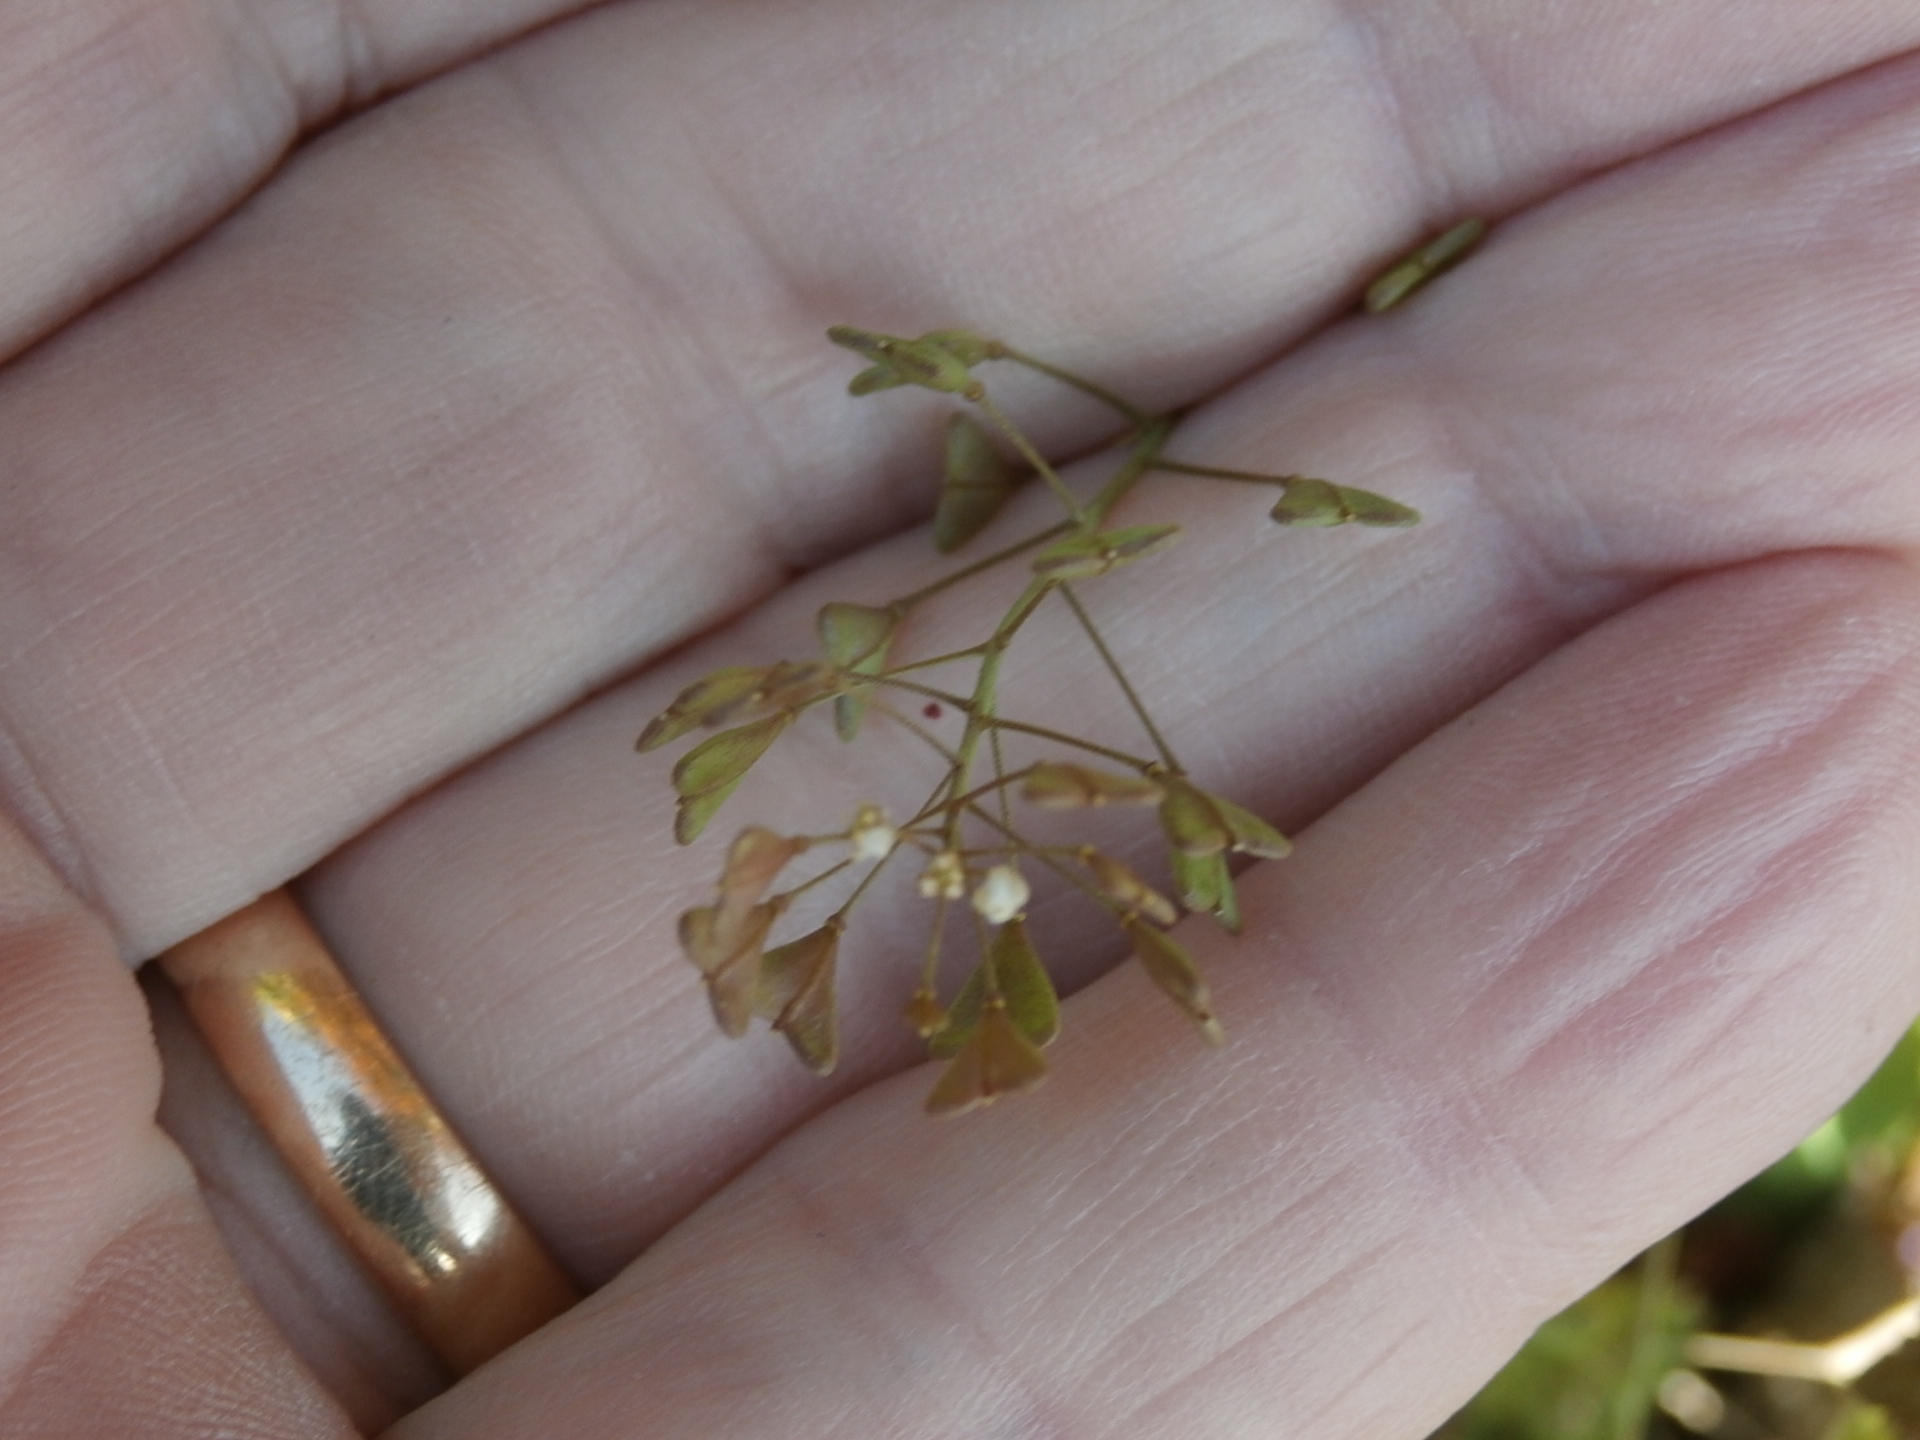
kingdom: Plantae
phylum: Tracheophyta
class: Magnoliopsida
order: Brassicales
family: Brassicaceae
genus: Capsella
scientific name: Capsella bursa-pastoris
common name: Shepherd's purse
